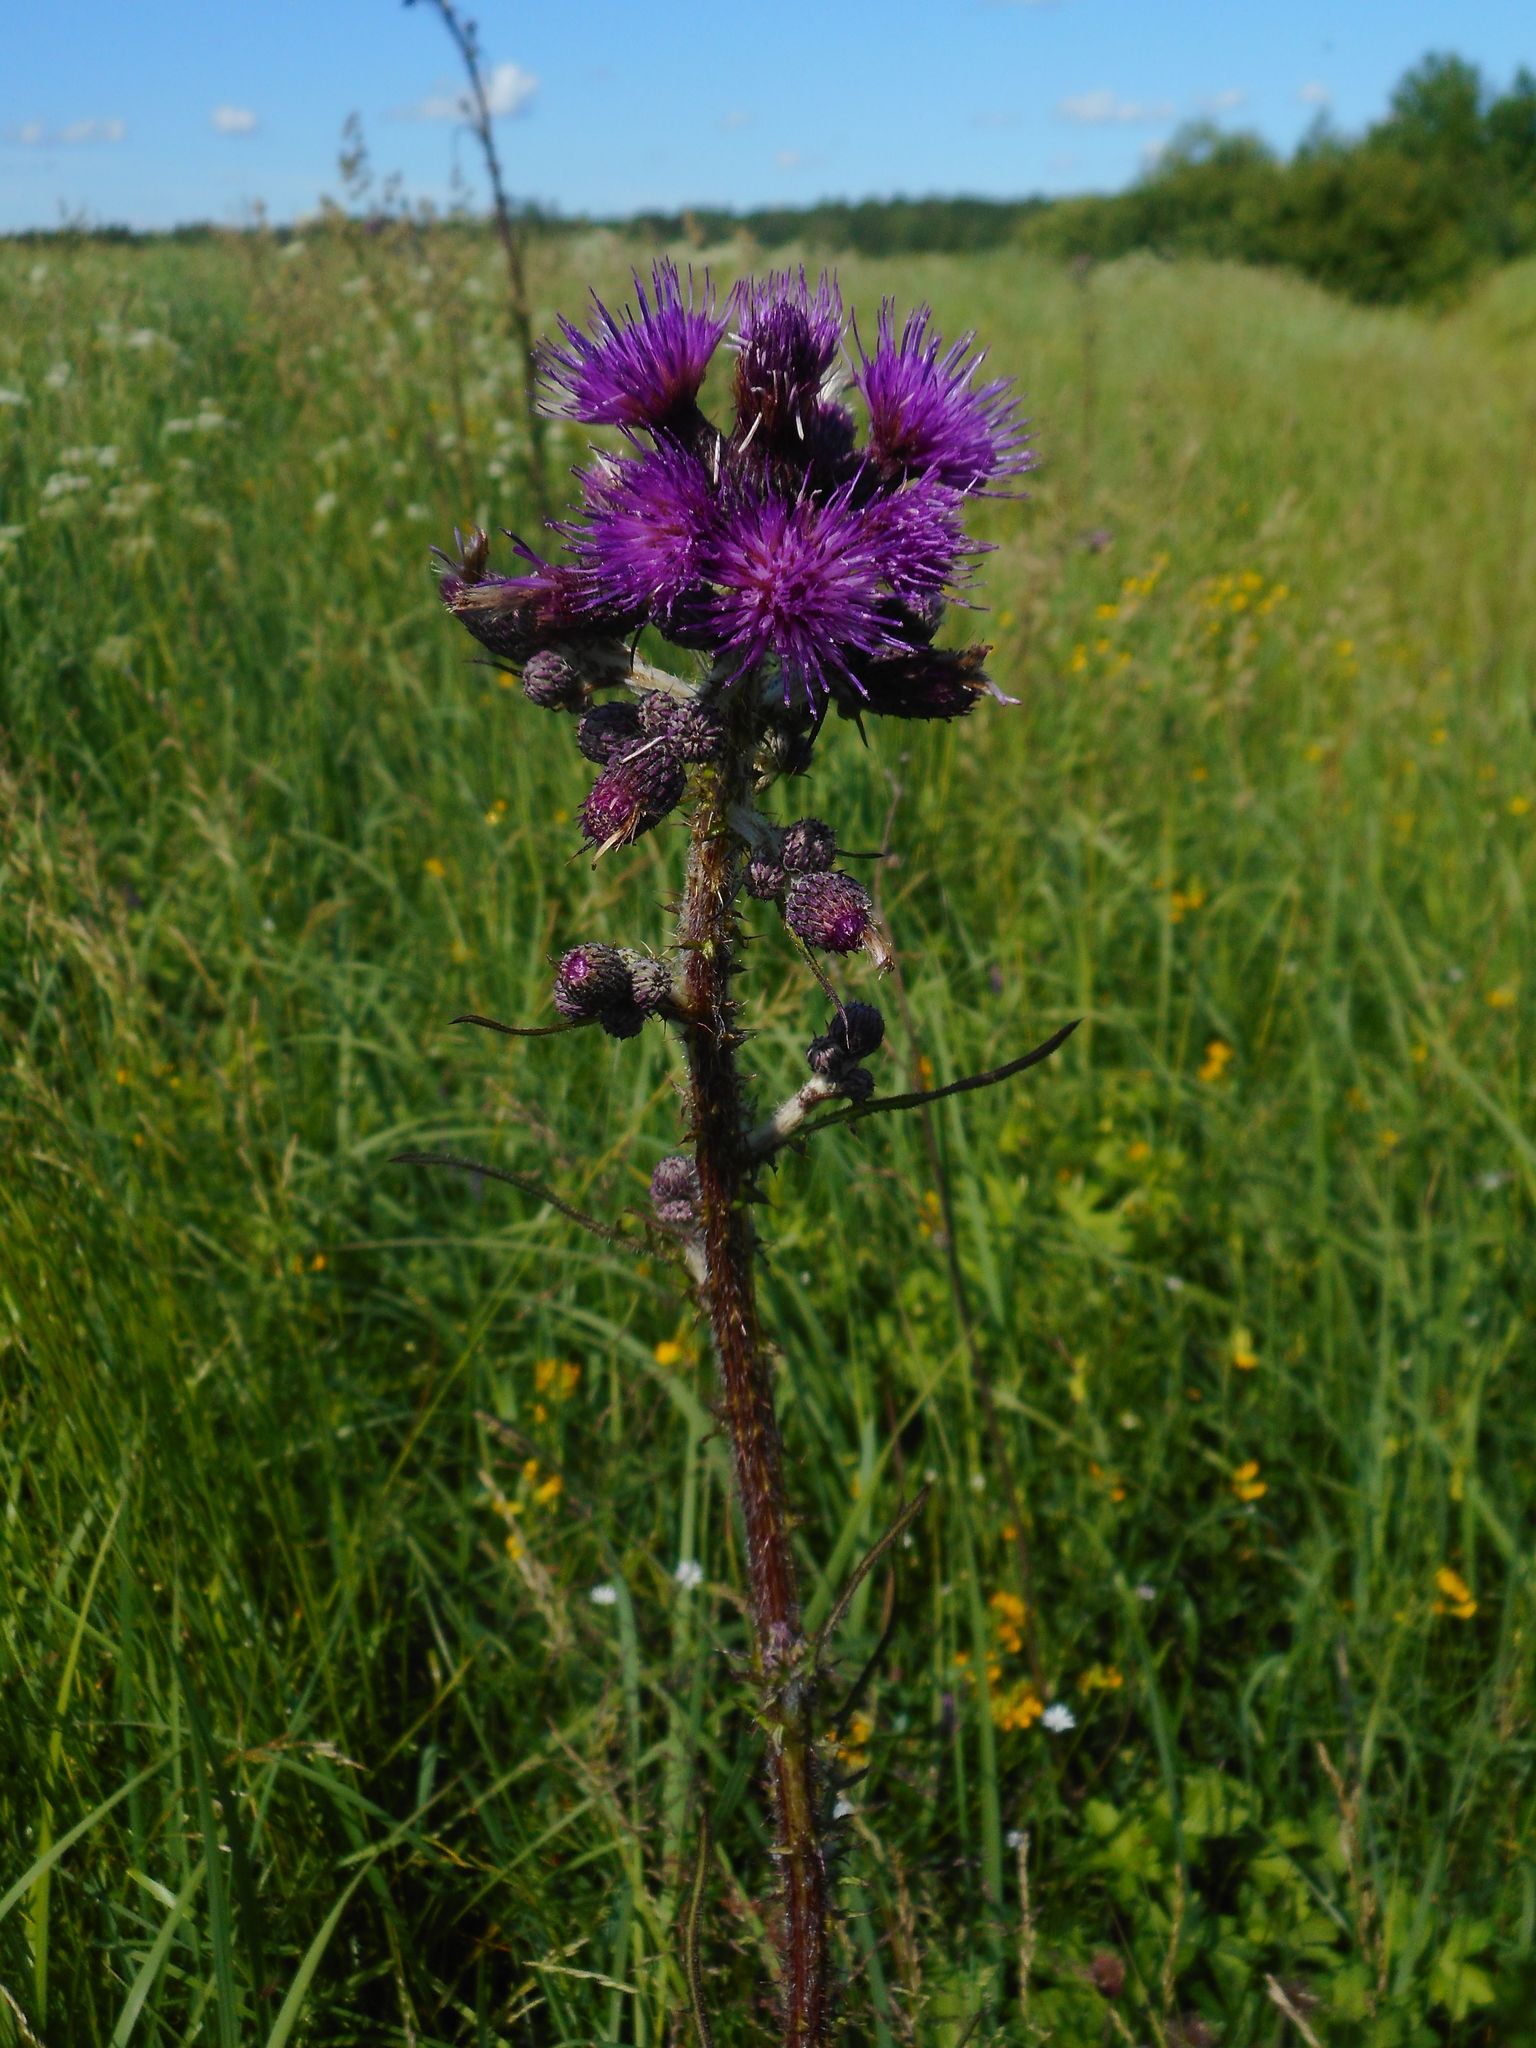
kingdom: Plantae
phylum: Tracheophyta
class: Magnoliopsida
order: Asterales
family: Asteraceae
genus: Cirsium
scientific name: Cirsium palustre
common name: Marsh thistle
